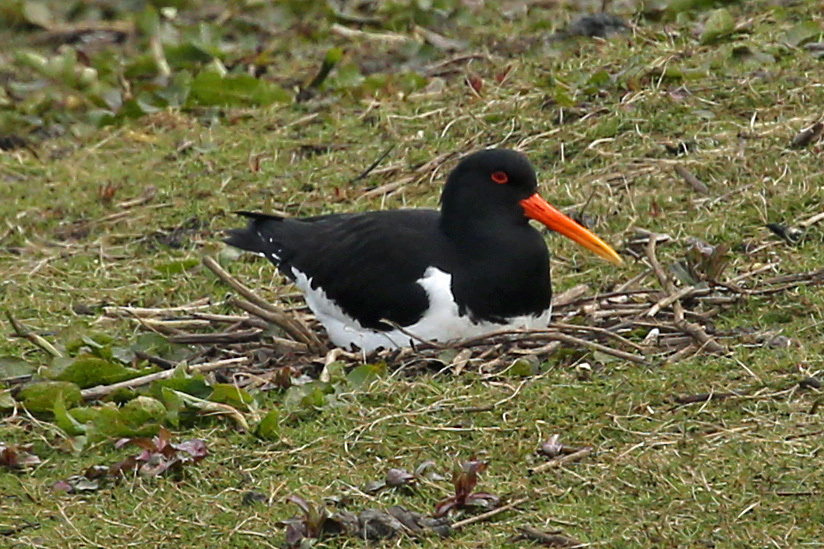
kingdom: Animalia
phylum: Chordata
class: Aves
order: Charadriiformes
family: Haematopodidae
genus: Haematopus
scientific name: Haematopus ostralegus
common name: Eurasian oystercatcher
